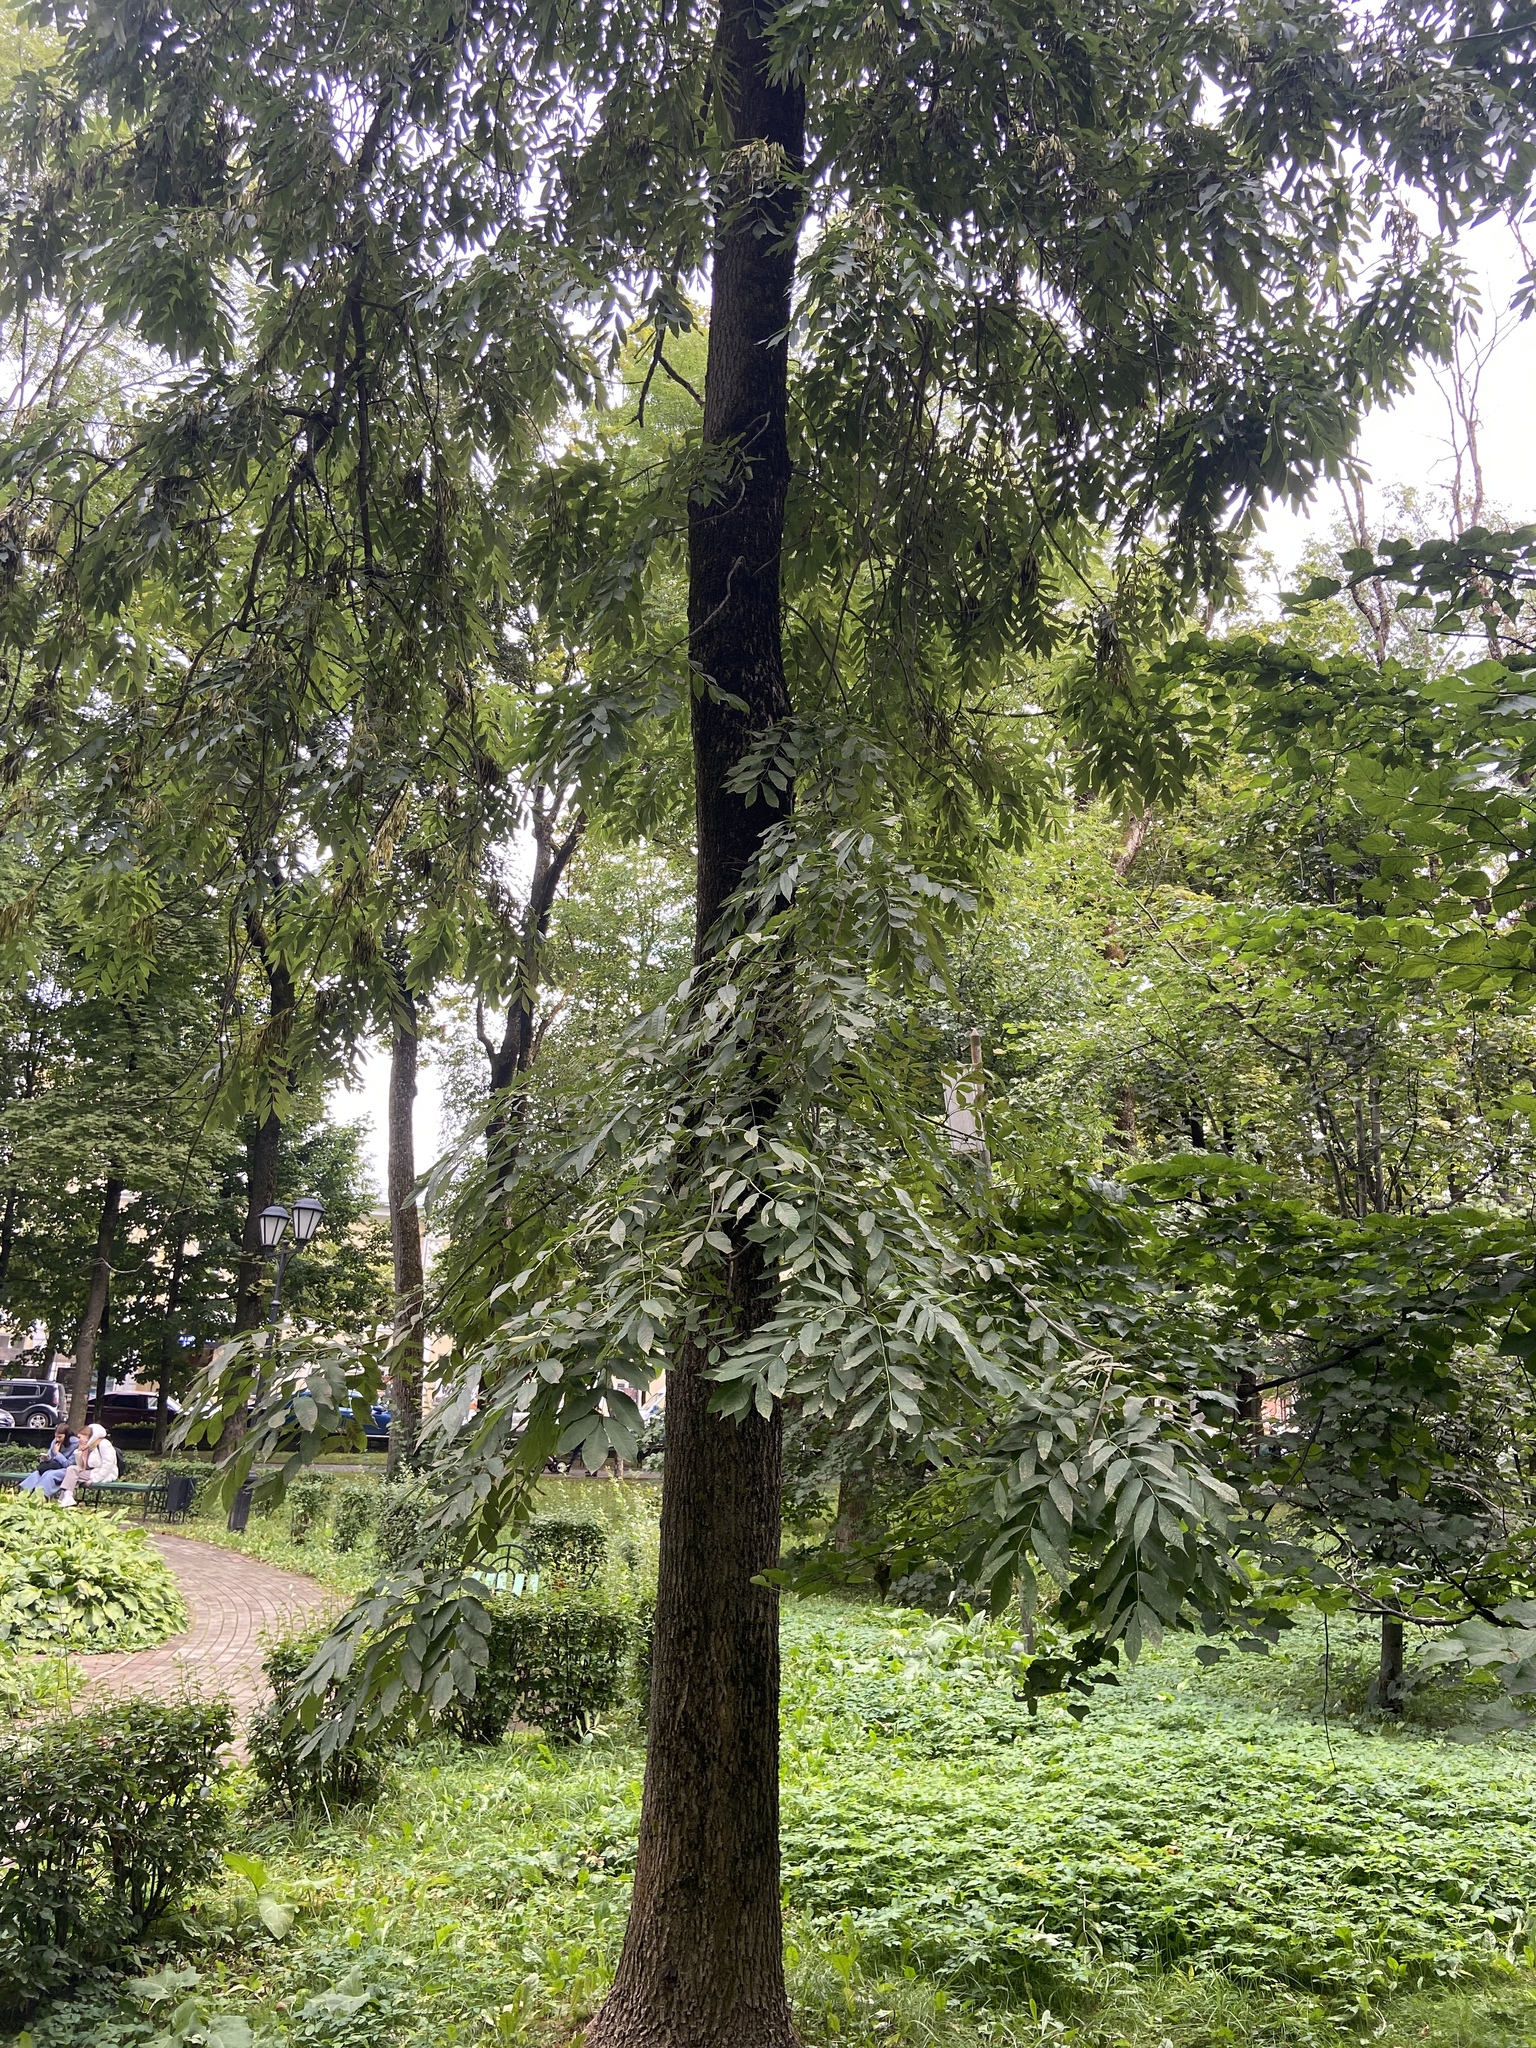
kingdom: Plantae
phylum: Tracheophyta
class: Magnoliopsida
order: Lamiales
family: Oleaceae
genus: Fraxinus
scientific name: Fraxinus excelsior
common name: European ash
